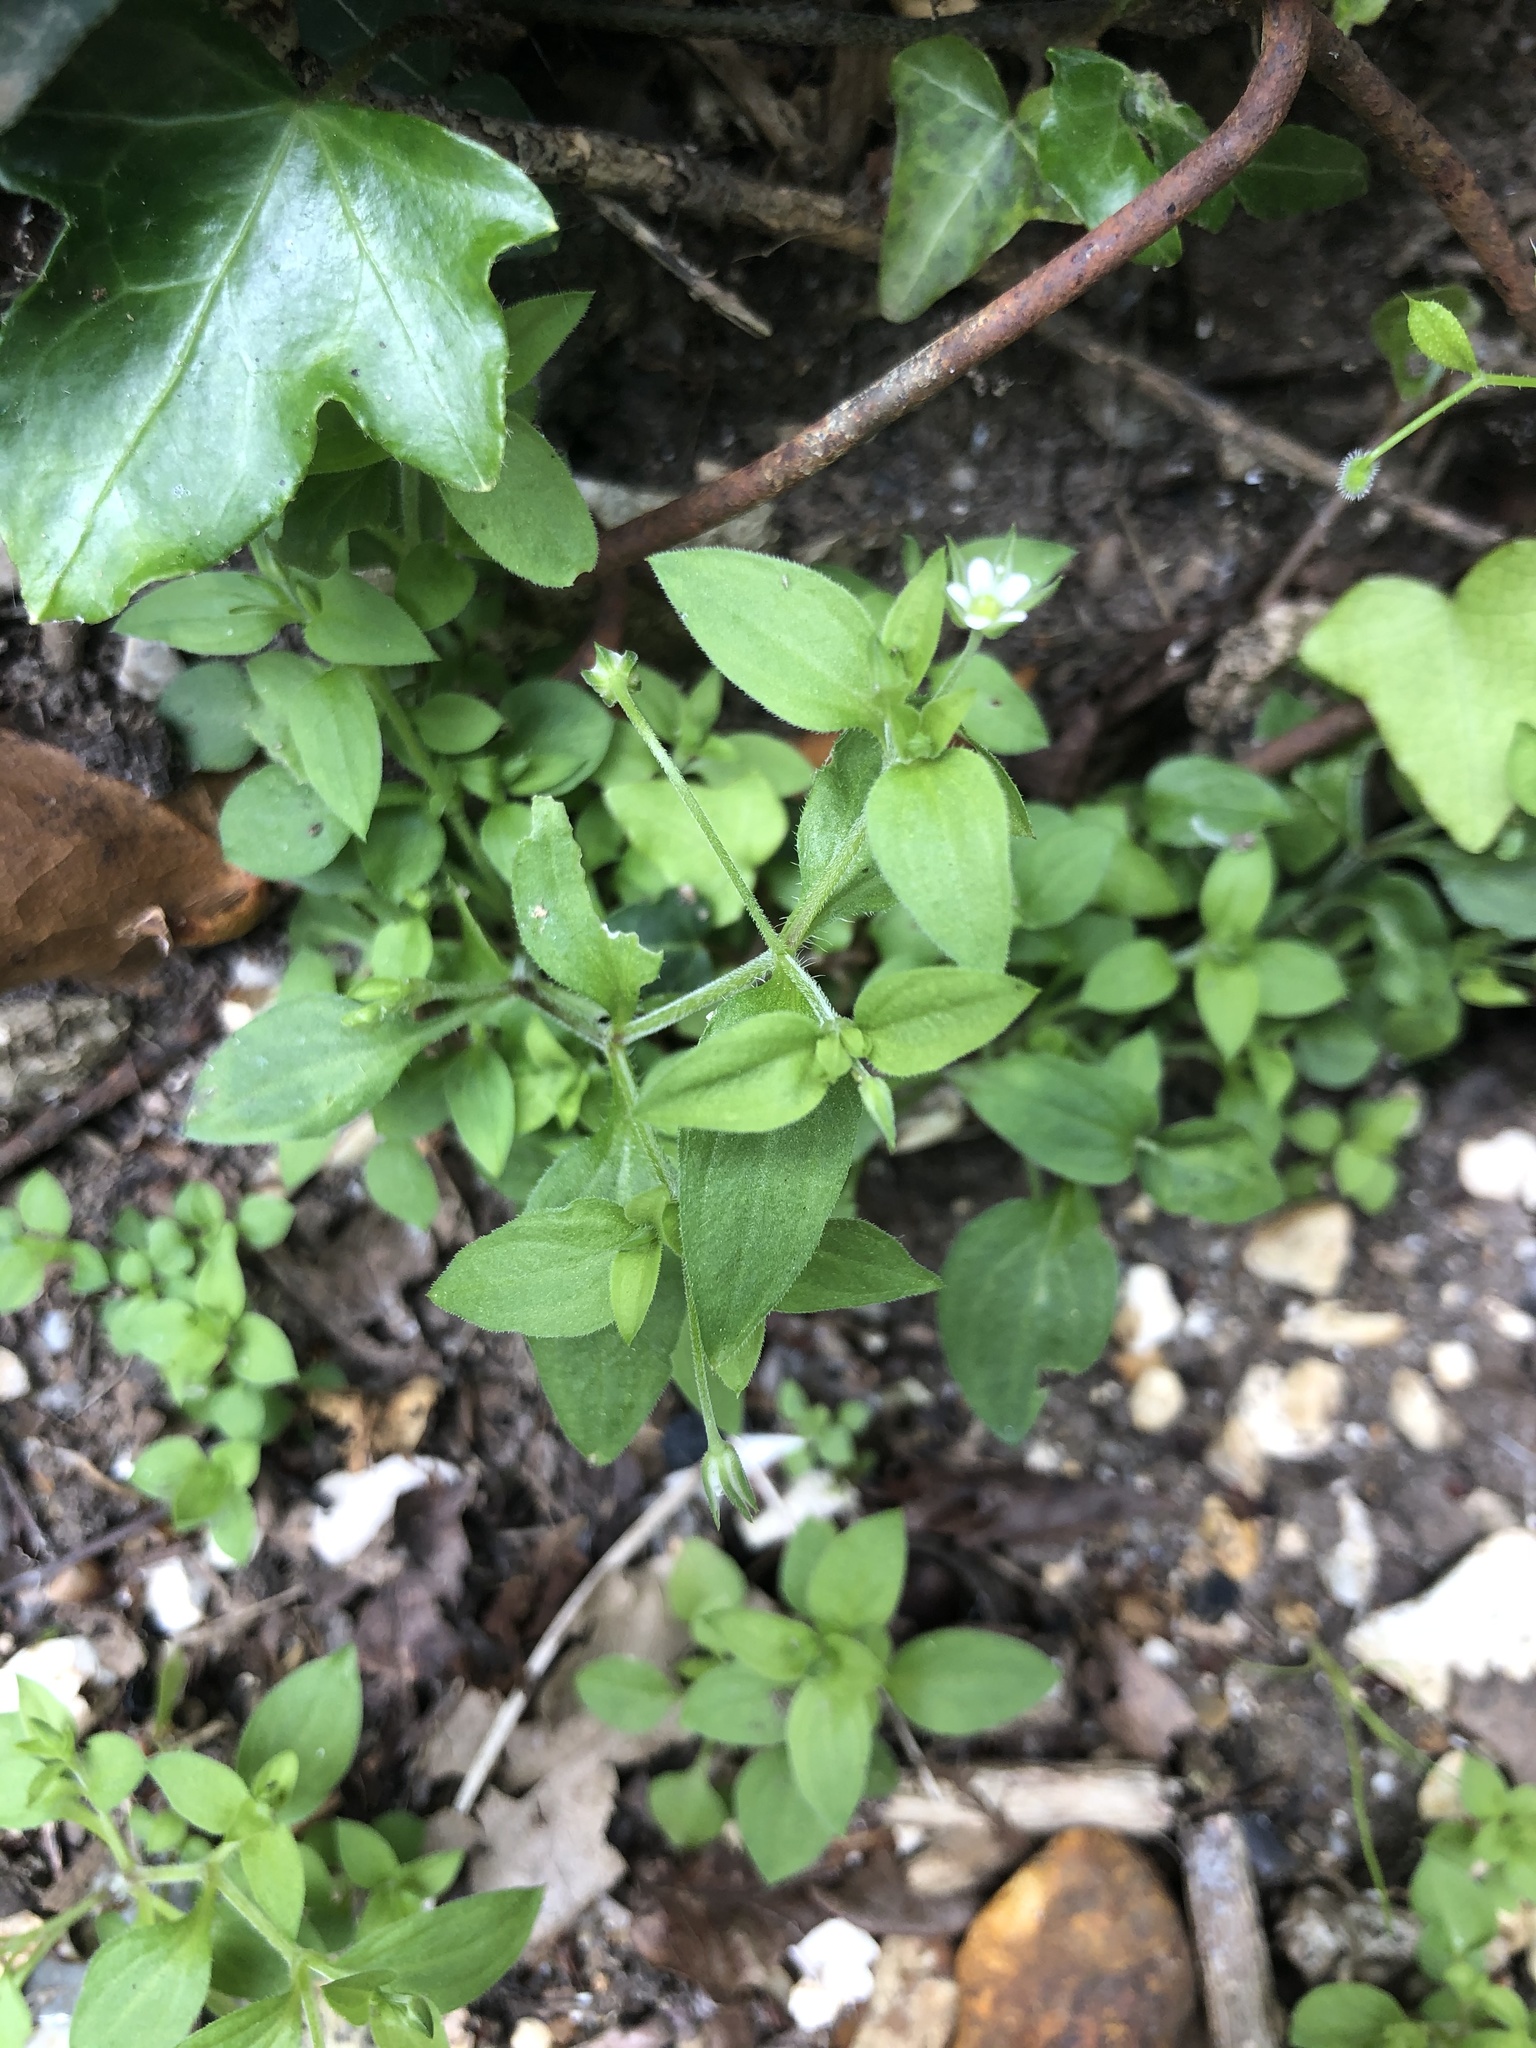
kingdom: Plantae
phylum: Tracheophyta
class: Magnoliopsida
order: Caryophyllales
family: Caryophyllaceae
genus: Stellaria
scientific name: Stellaria media
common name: Common chickweed
